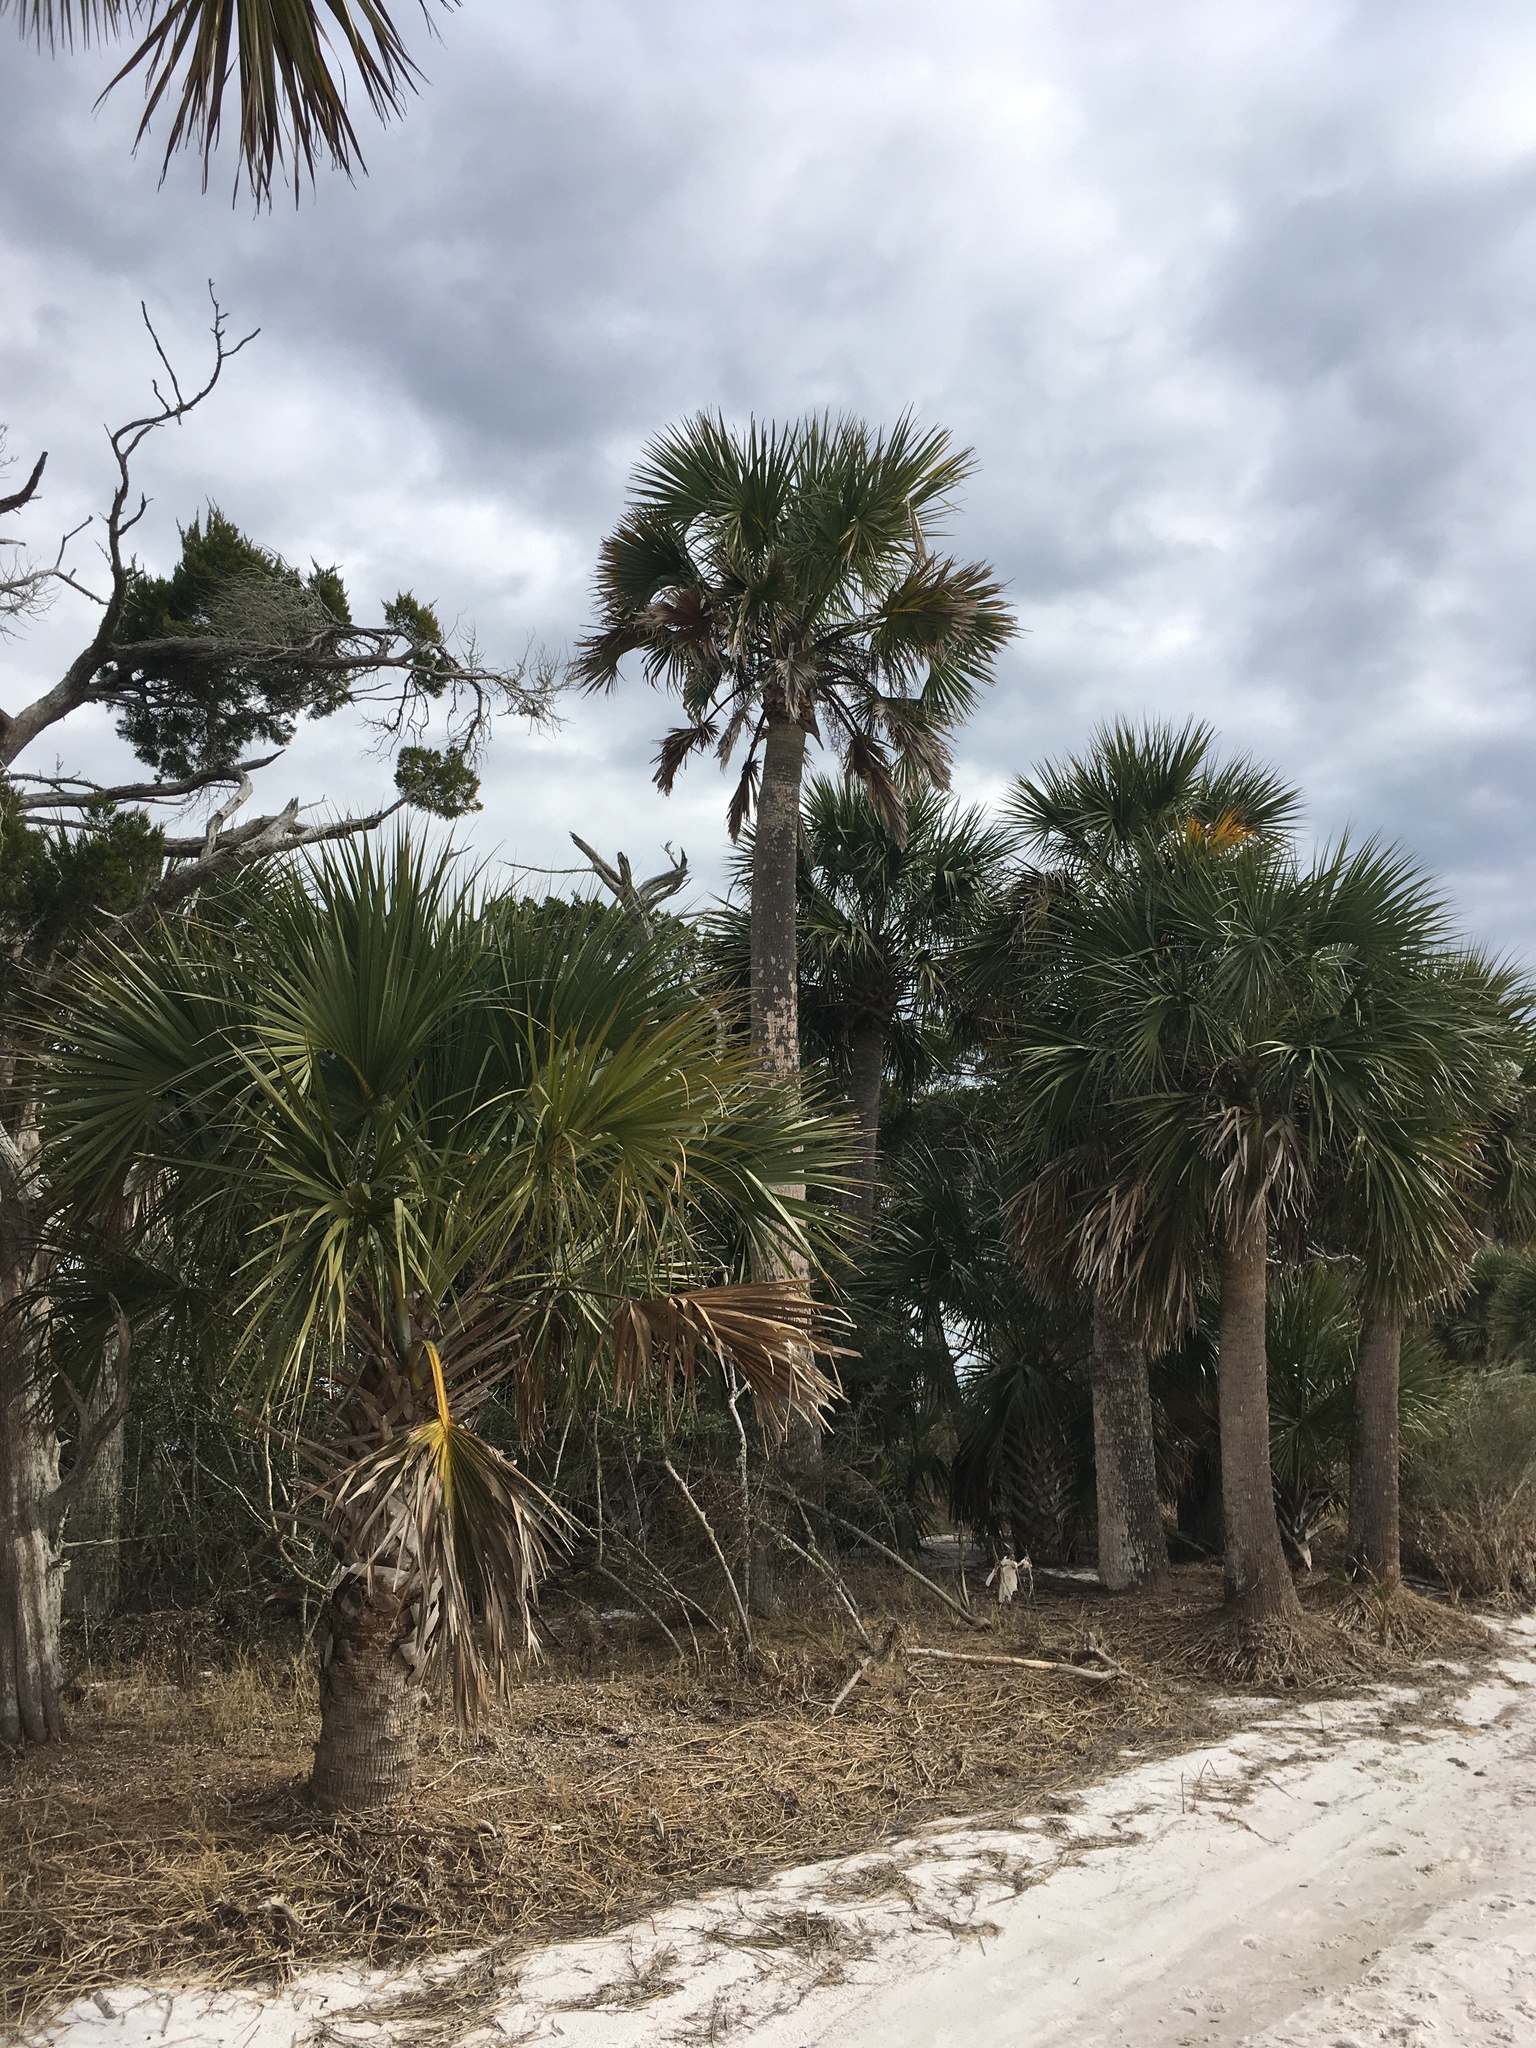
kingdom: Plantae
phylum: Tracheophyta
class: Liliopsida
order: Arecales
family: Arecaceae
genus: Sabal
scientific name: Sabal palmetto
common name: Blue palmetto
